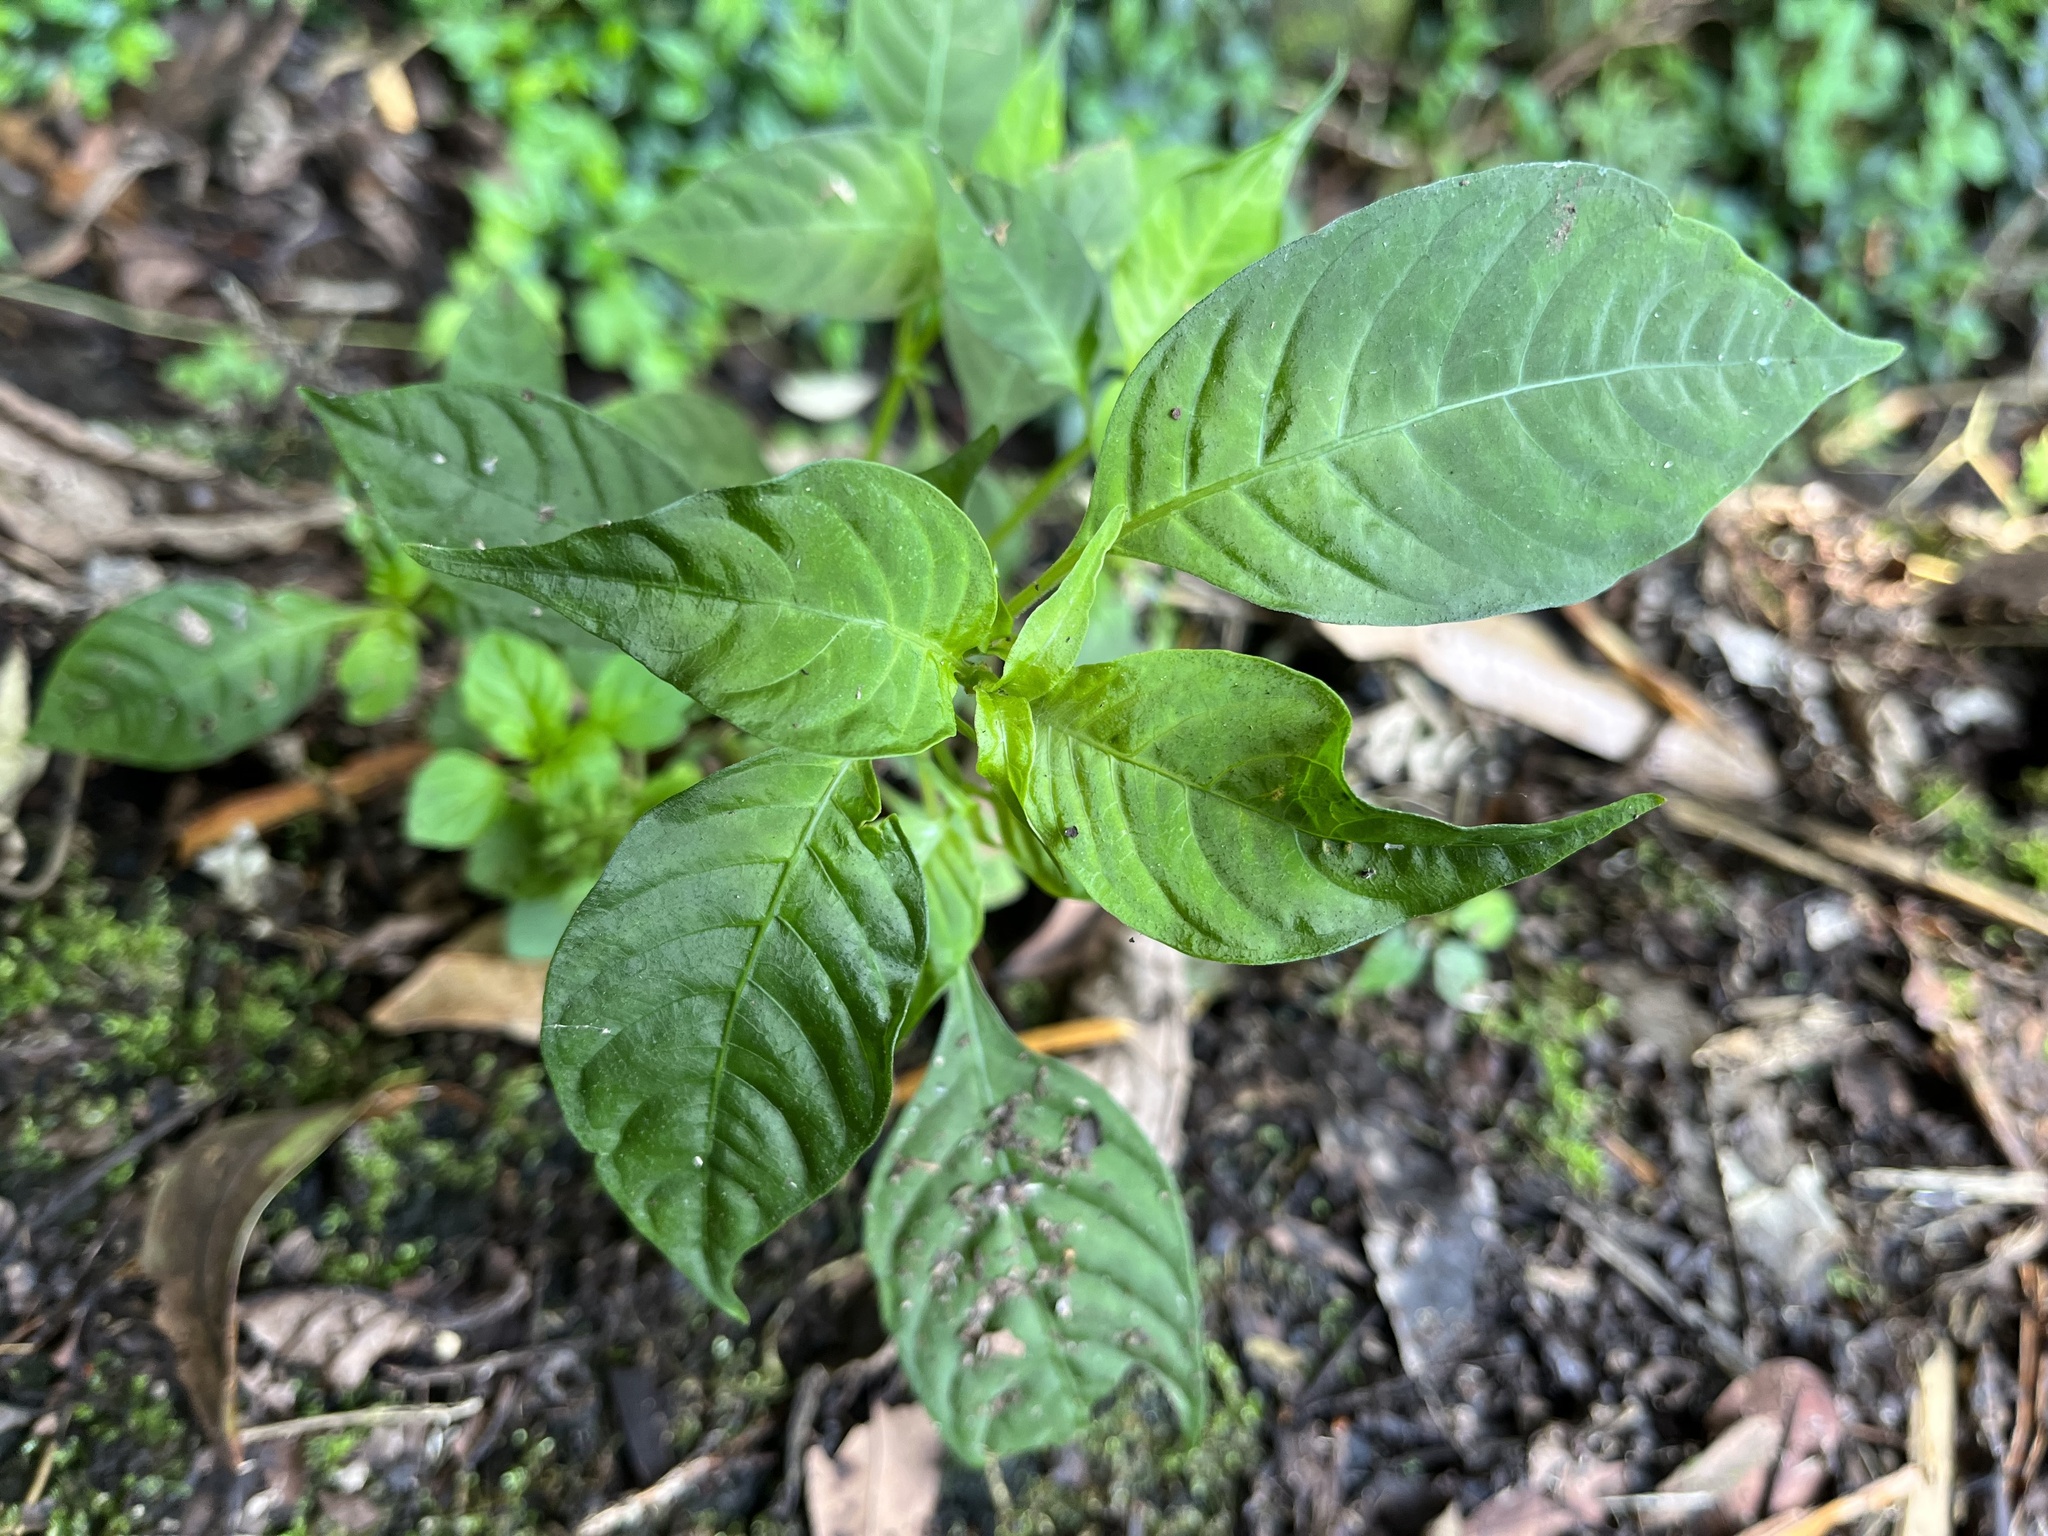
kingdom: Plantae
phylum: Tracheophyta
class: Magnoliopsida
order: Gentianales
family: Rubiaceae
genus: Ophiorrhiza
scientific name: Ophiorrhiza japonica
